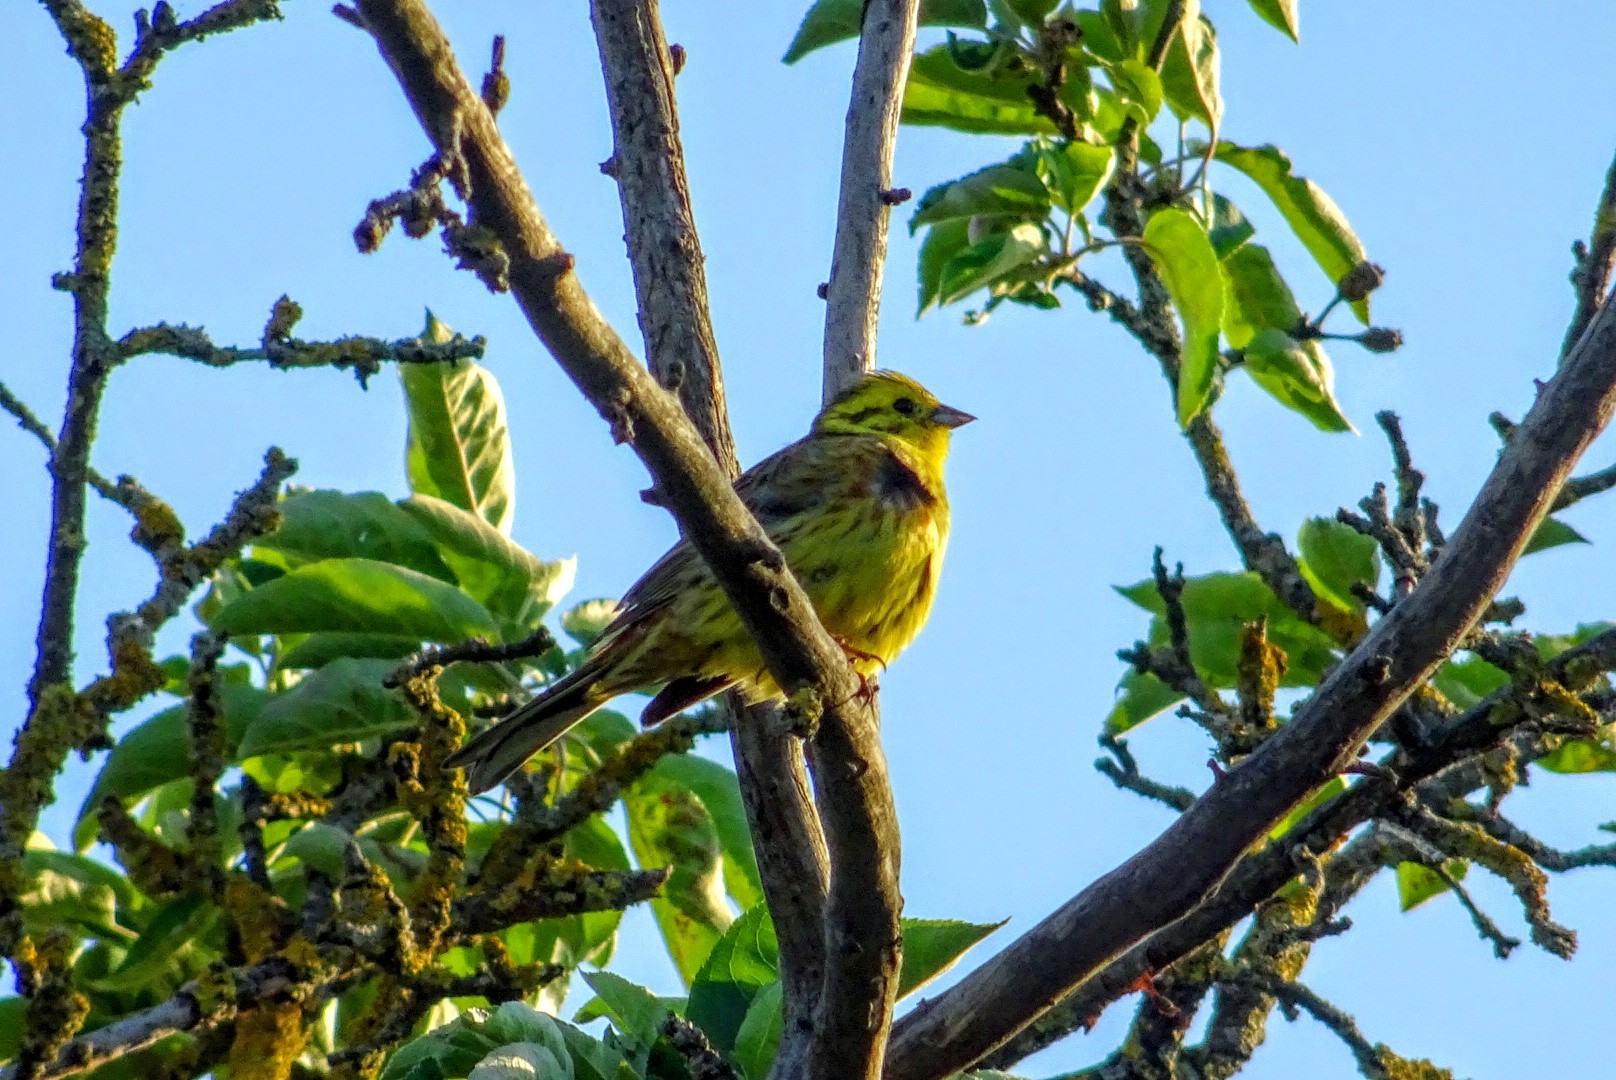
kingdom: Animalia
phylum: Chordata
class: Aves
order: Passeriformes
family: Emberizidae
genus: Emberiza
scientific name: Emberiza citrinella
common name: Yellowhammer
